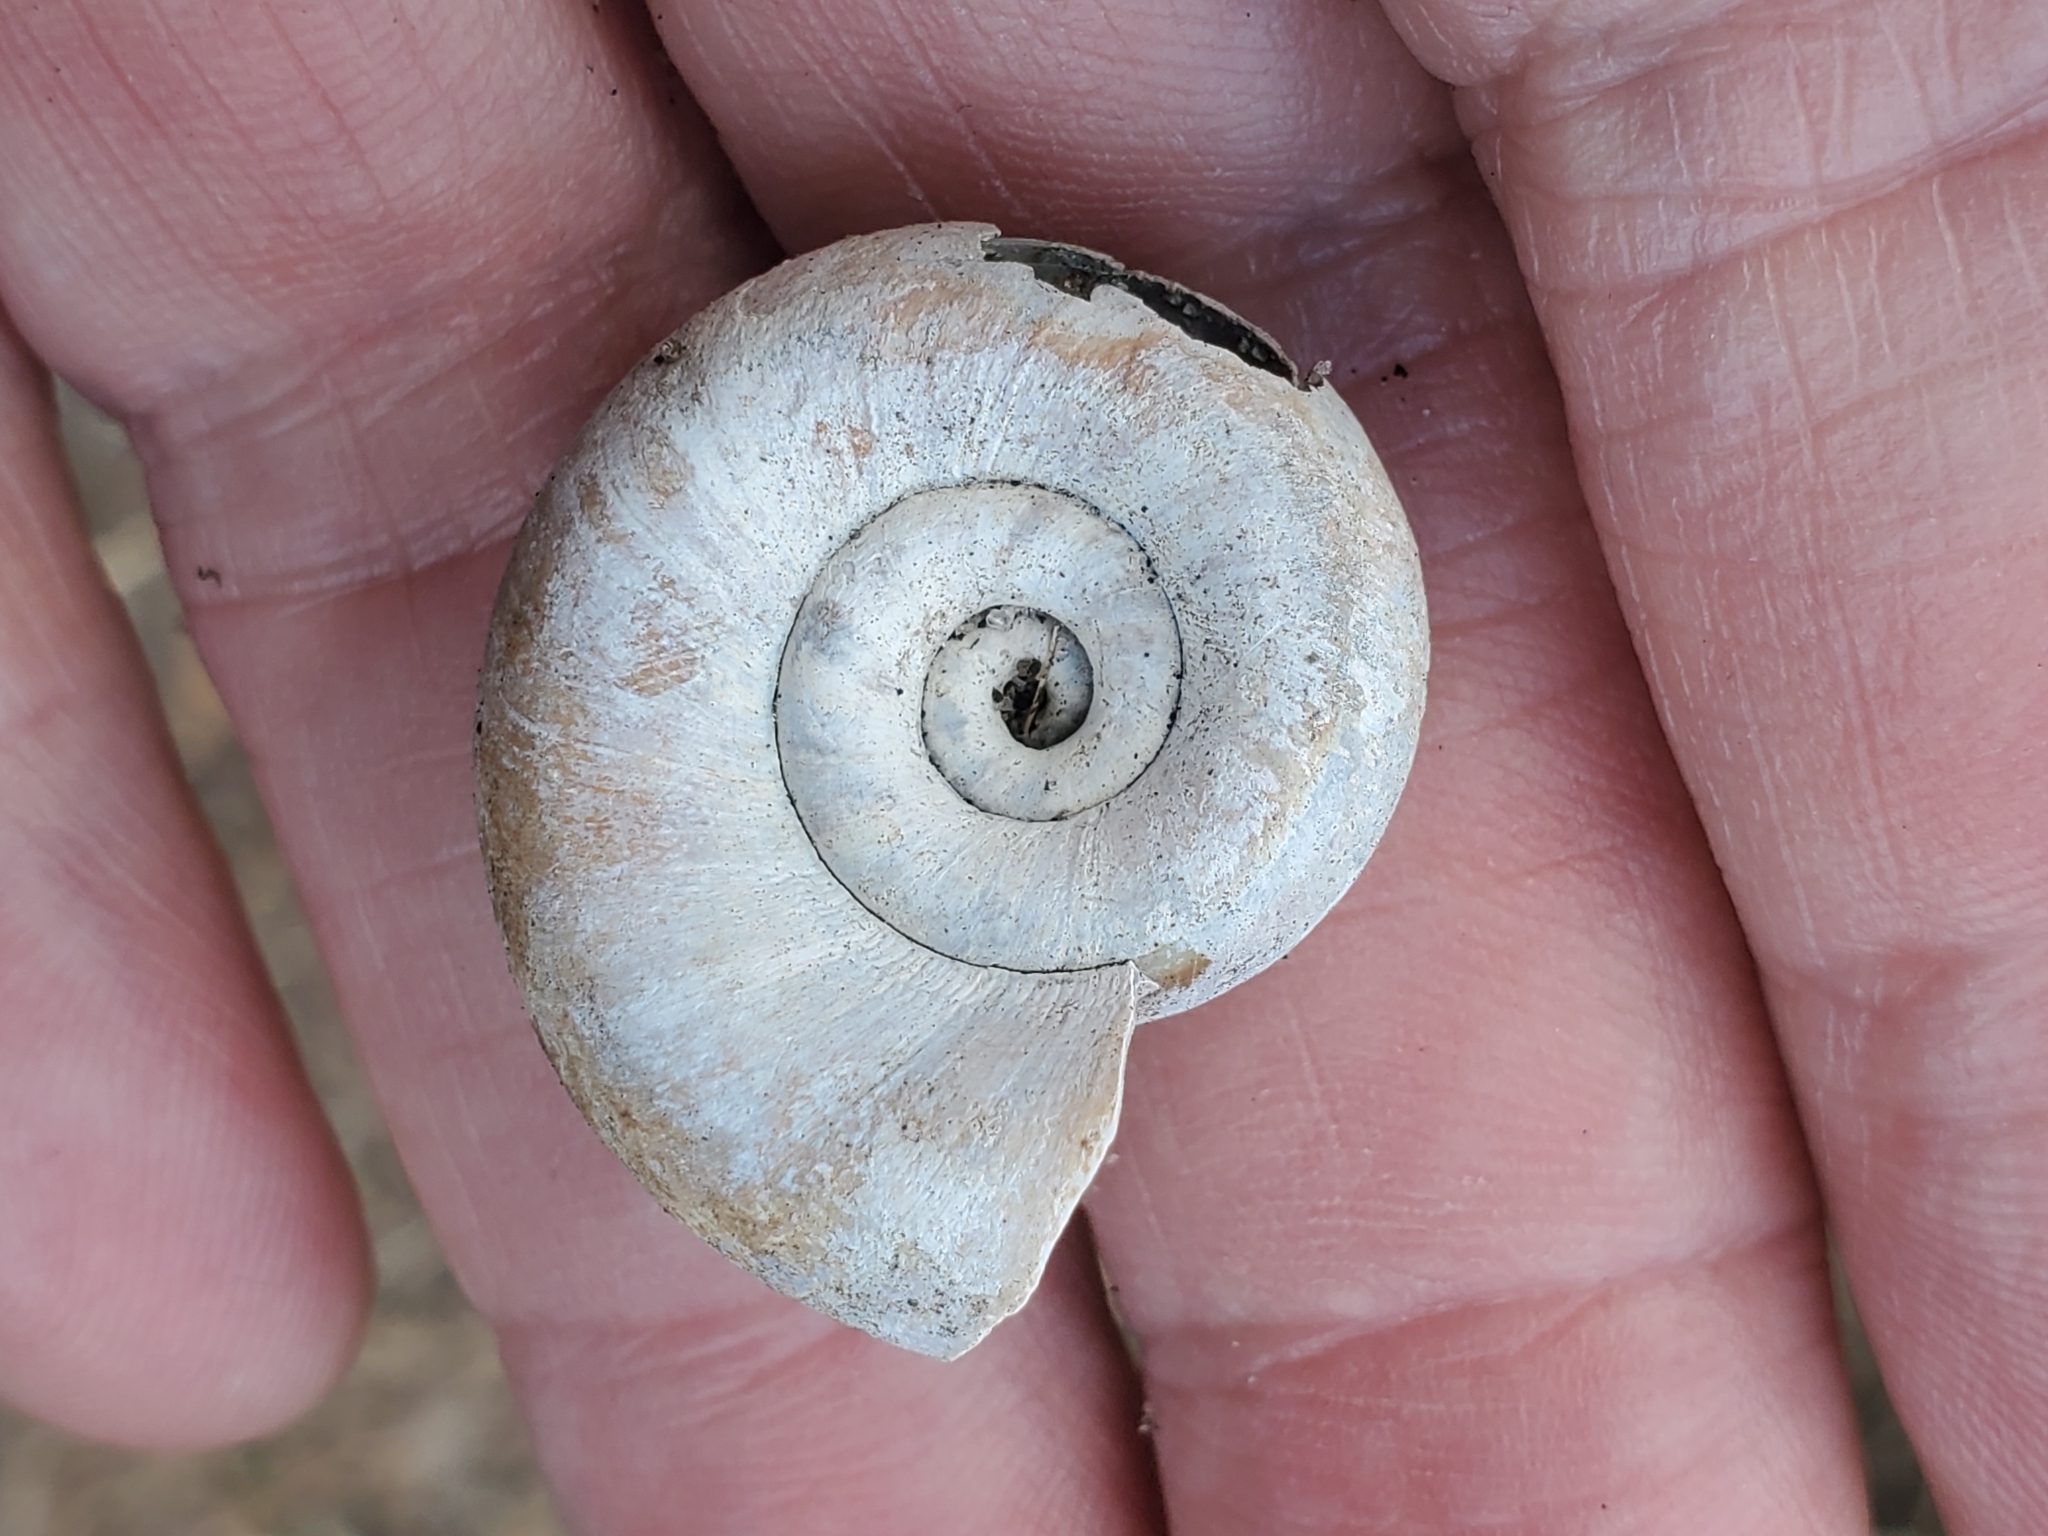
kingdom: Animalia
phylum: Mollusca
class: Gastropoda
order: Architaenioglossa
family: Ampullariidae
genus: Marisa
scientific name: Marisa cornuarietis
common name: Giant ramshorn snail
